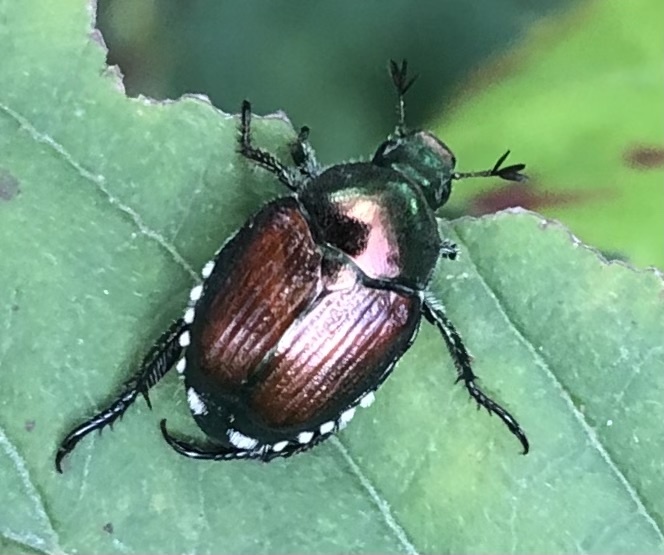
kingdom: Animalia
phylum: Arthropoda
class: Insecta
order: Coleoptera
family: Scarabaeidae
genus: Popillia
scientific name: Popillia japonica
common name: Japanese beetle
